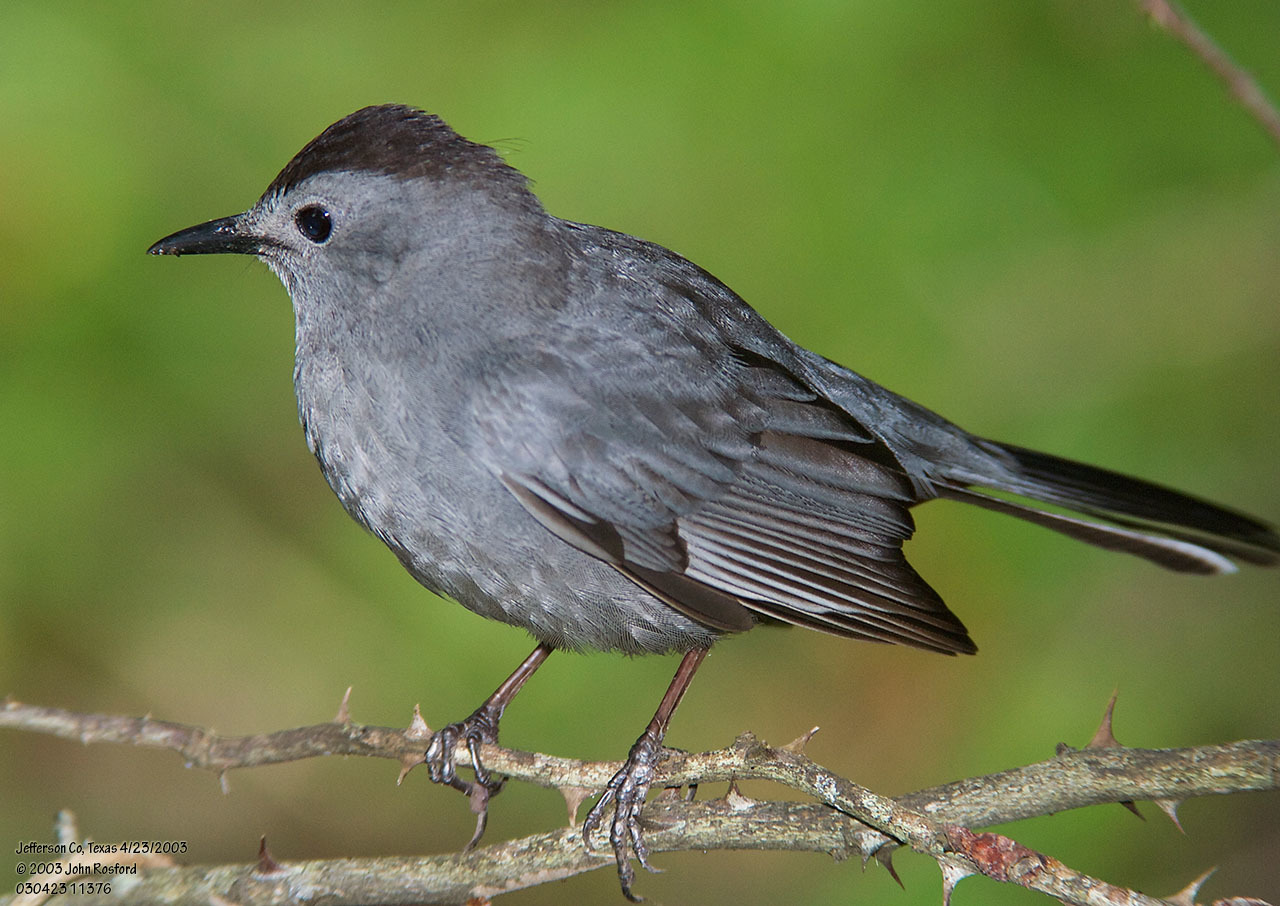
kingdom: Animalia
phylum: Chordata
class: Aves
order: Passeriformes
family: Mimidae
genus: Dumetella
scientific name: Dumetella carolinensis
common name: Gray catbird
